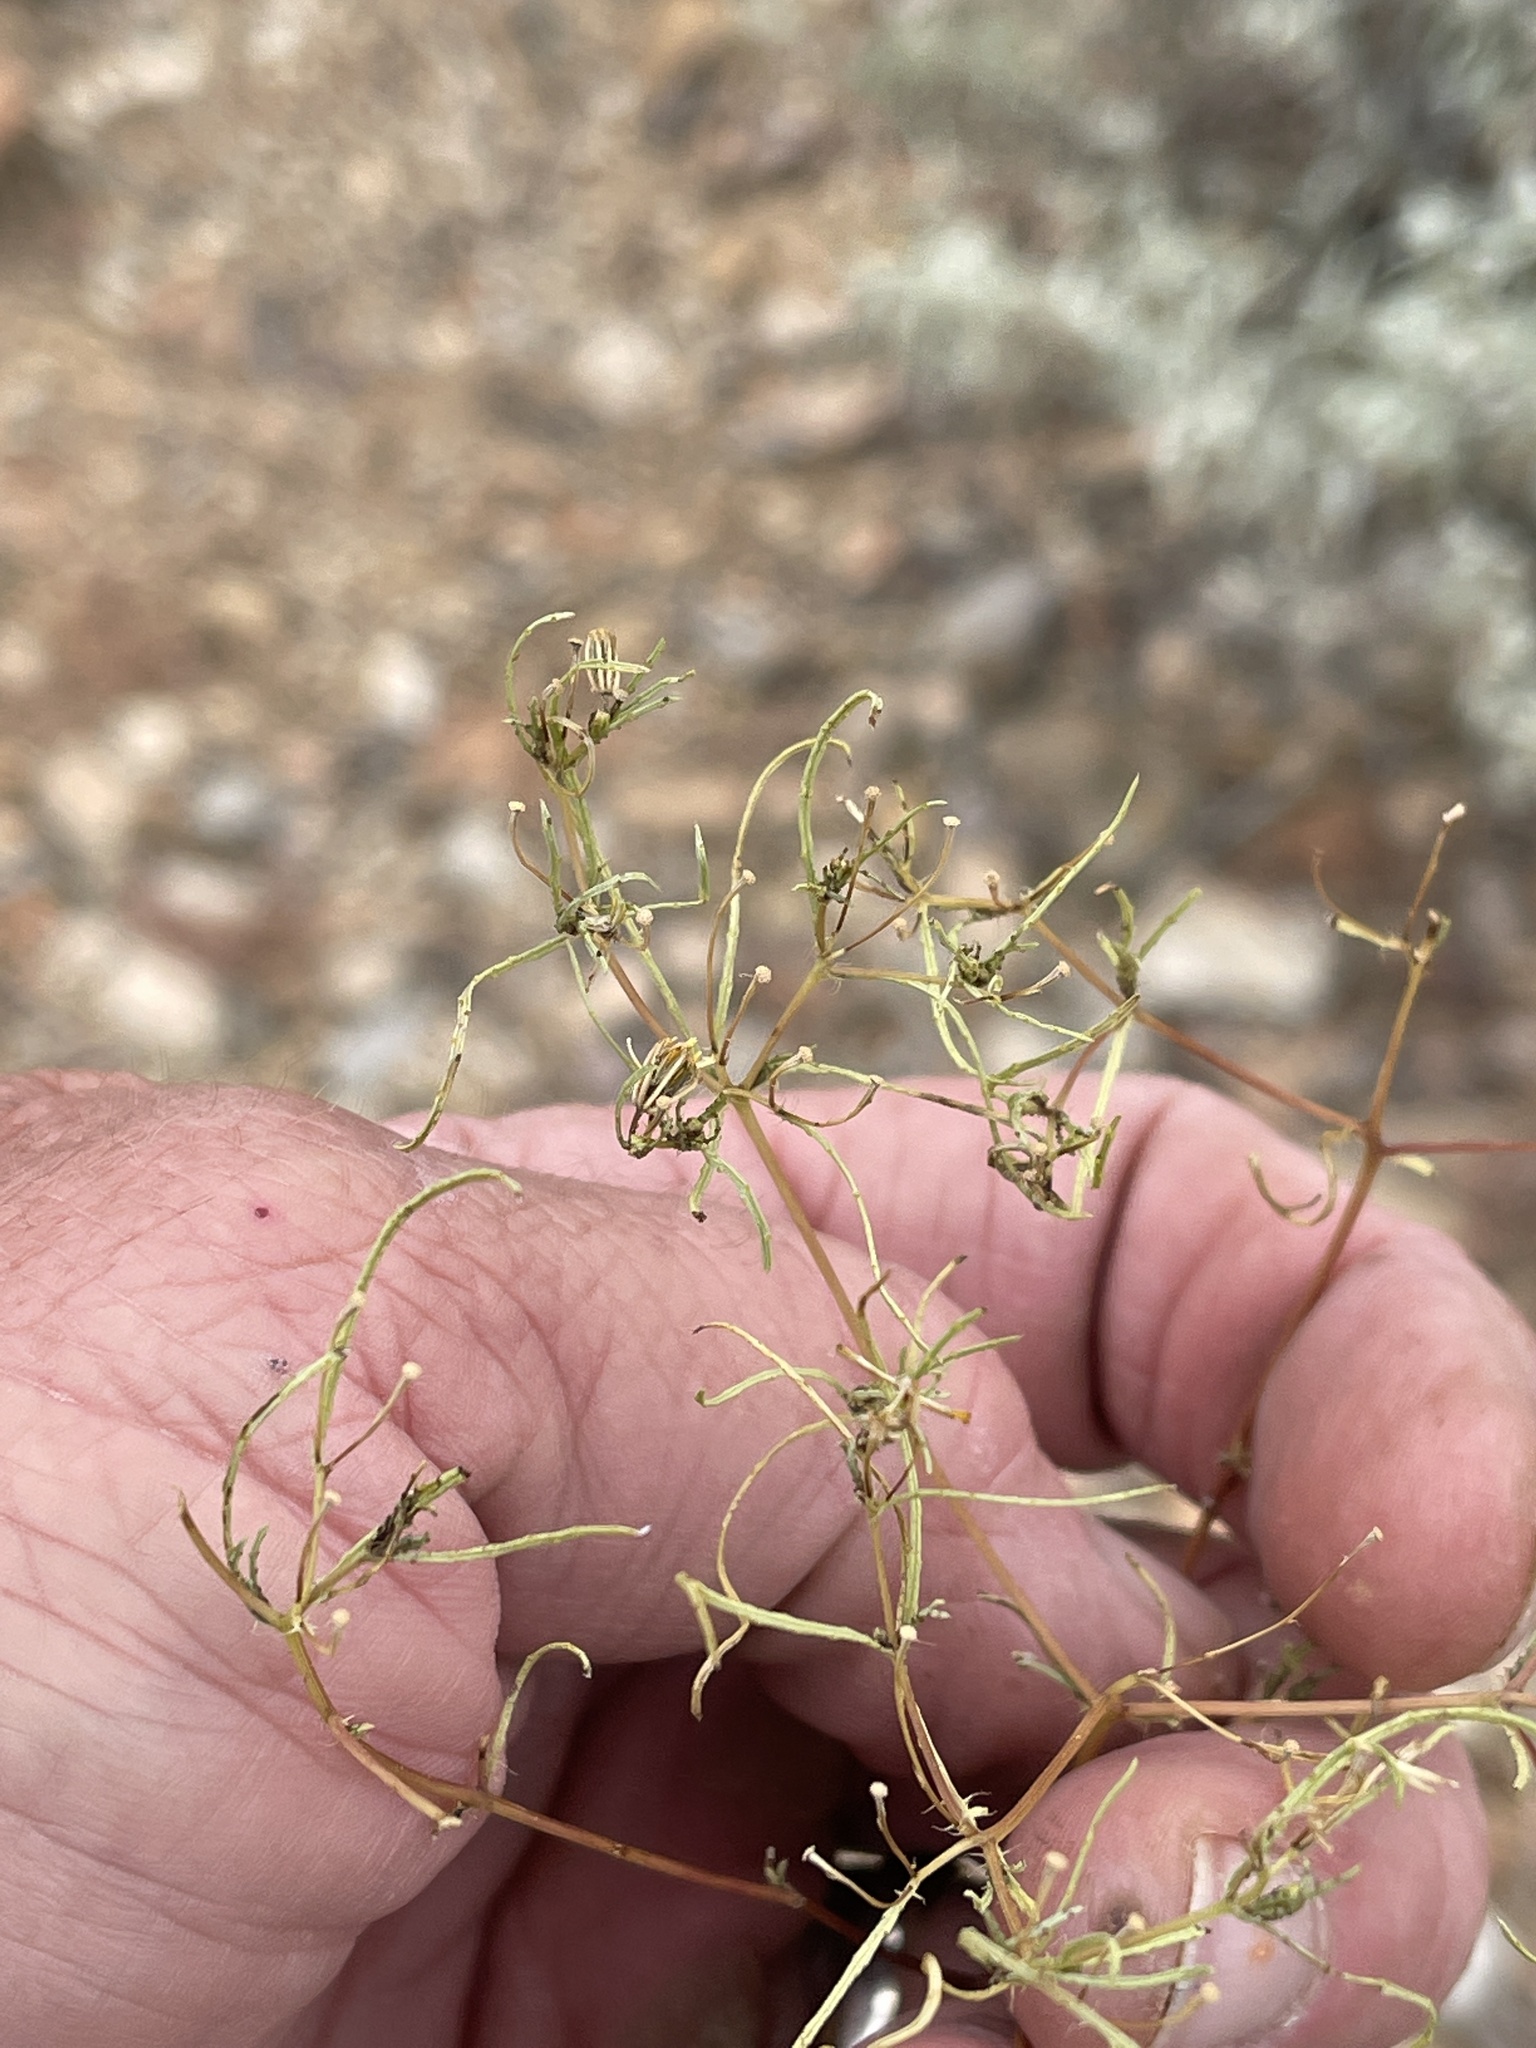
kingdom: Plantae
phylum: Tracheophyta
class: Magnoliopsida
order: Asterales
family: Asteraceae
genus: Pectis
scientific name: Pectis papposa
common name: Many-bristle chinchweed
